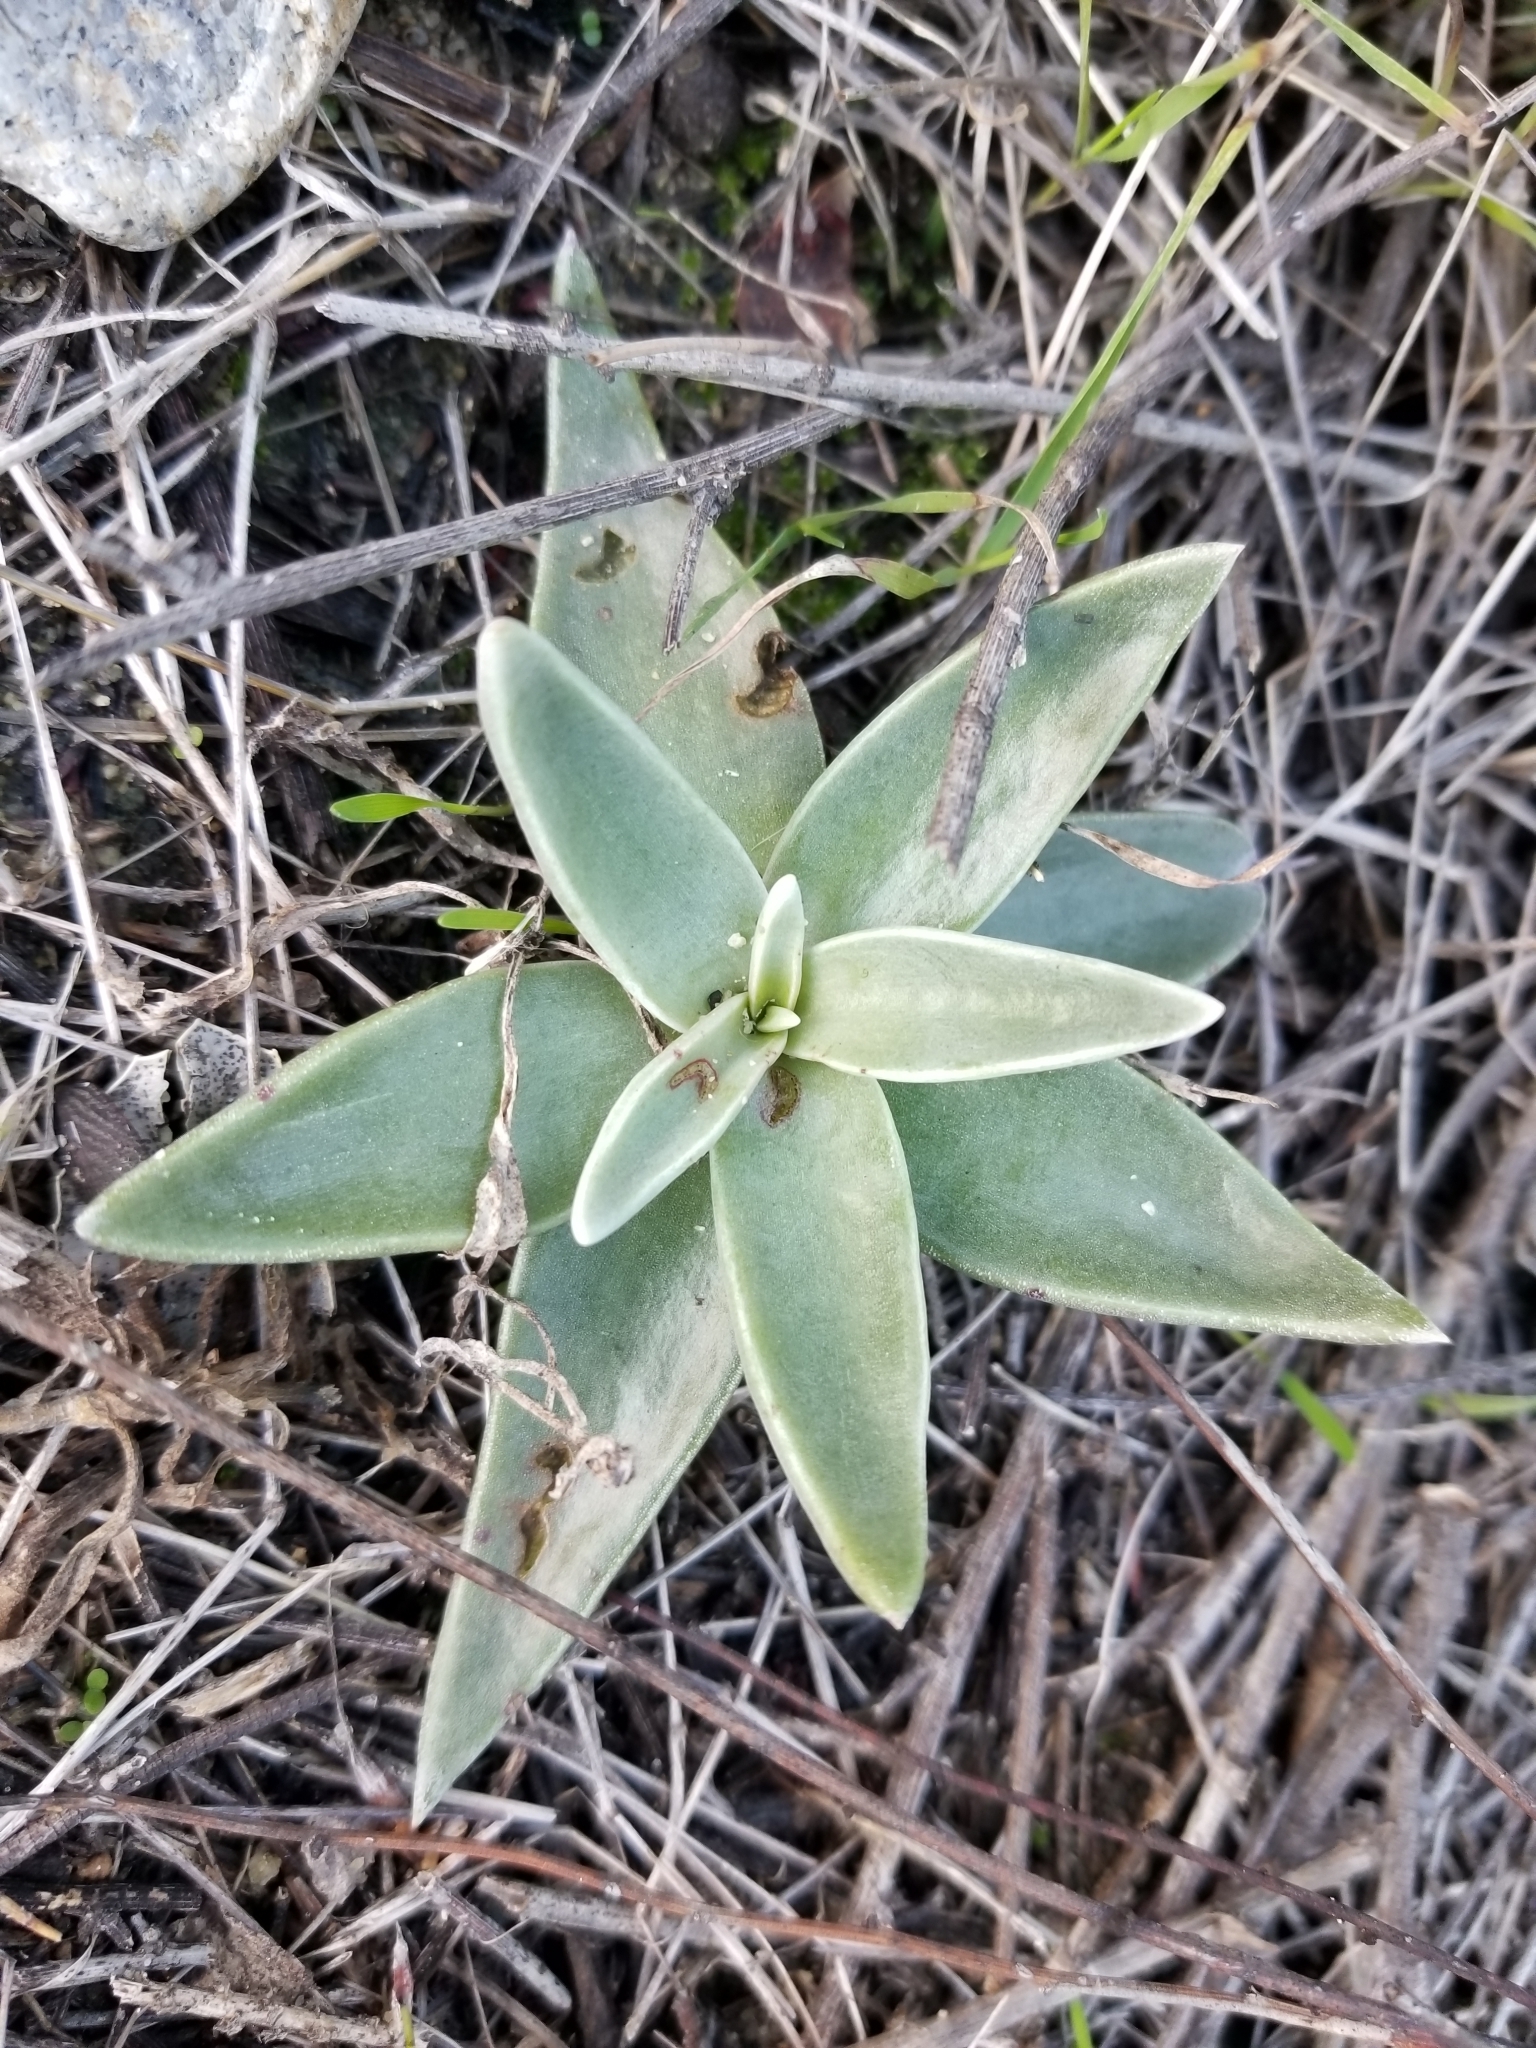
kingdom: Plantae
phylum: Tracheophyta
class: Magnoliopsida
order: Saxifragales
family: Crassulaceae
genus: Dudleya
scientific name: Dudleya lanceolata
